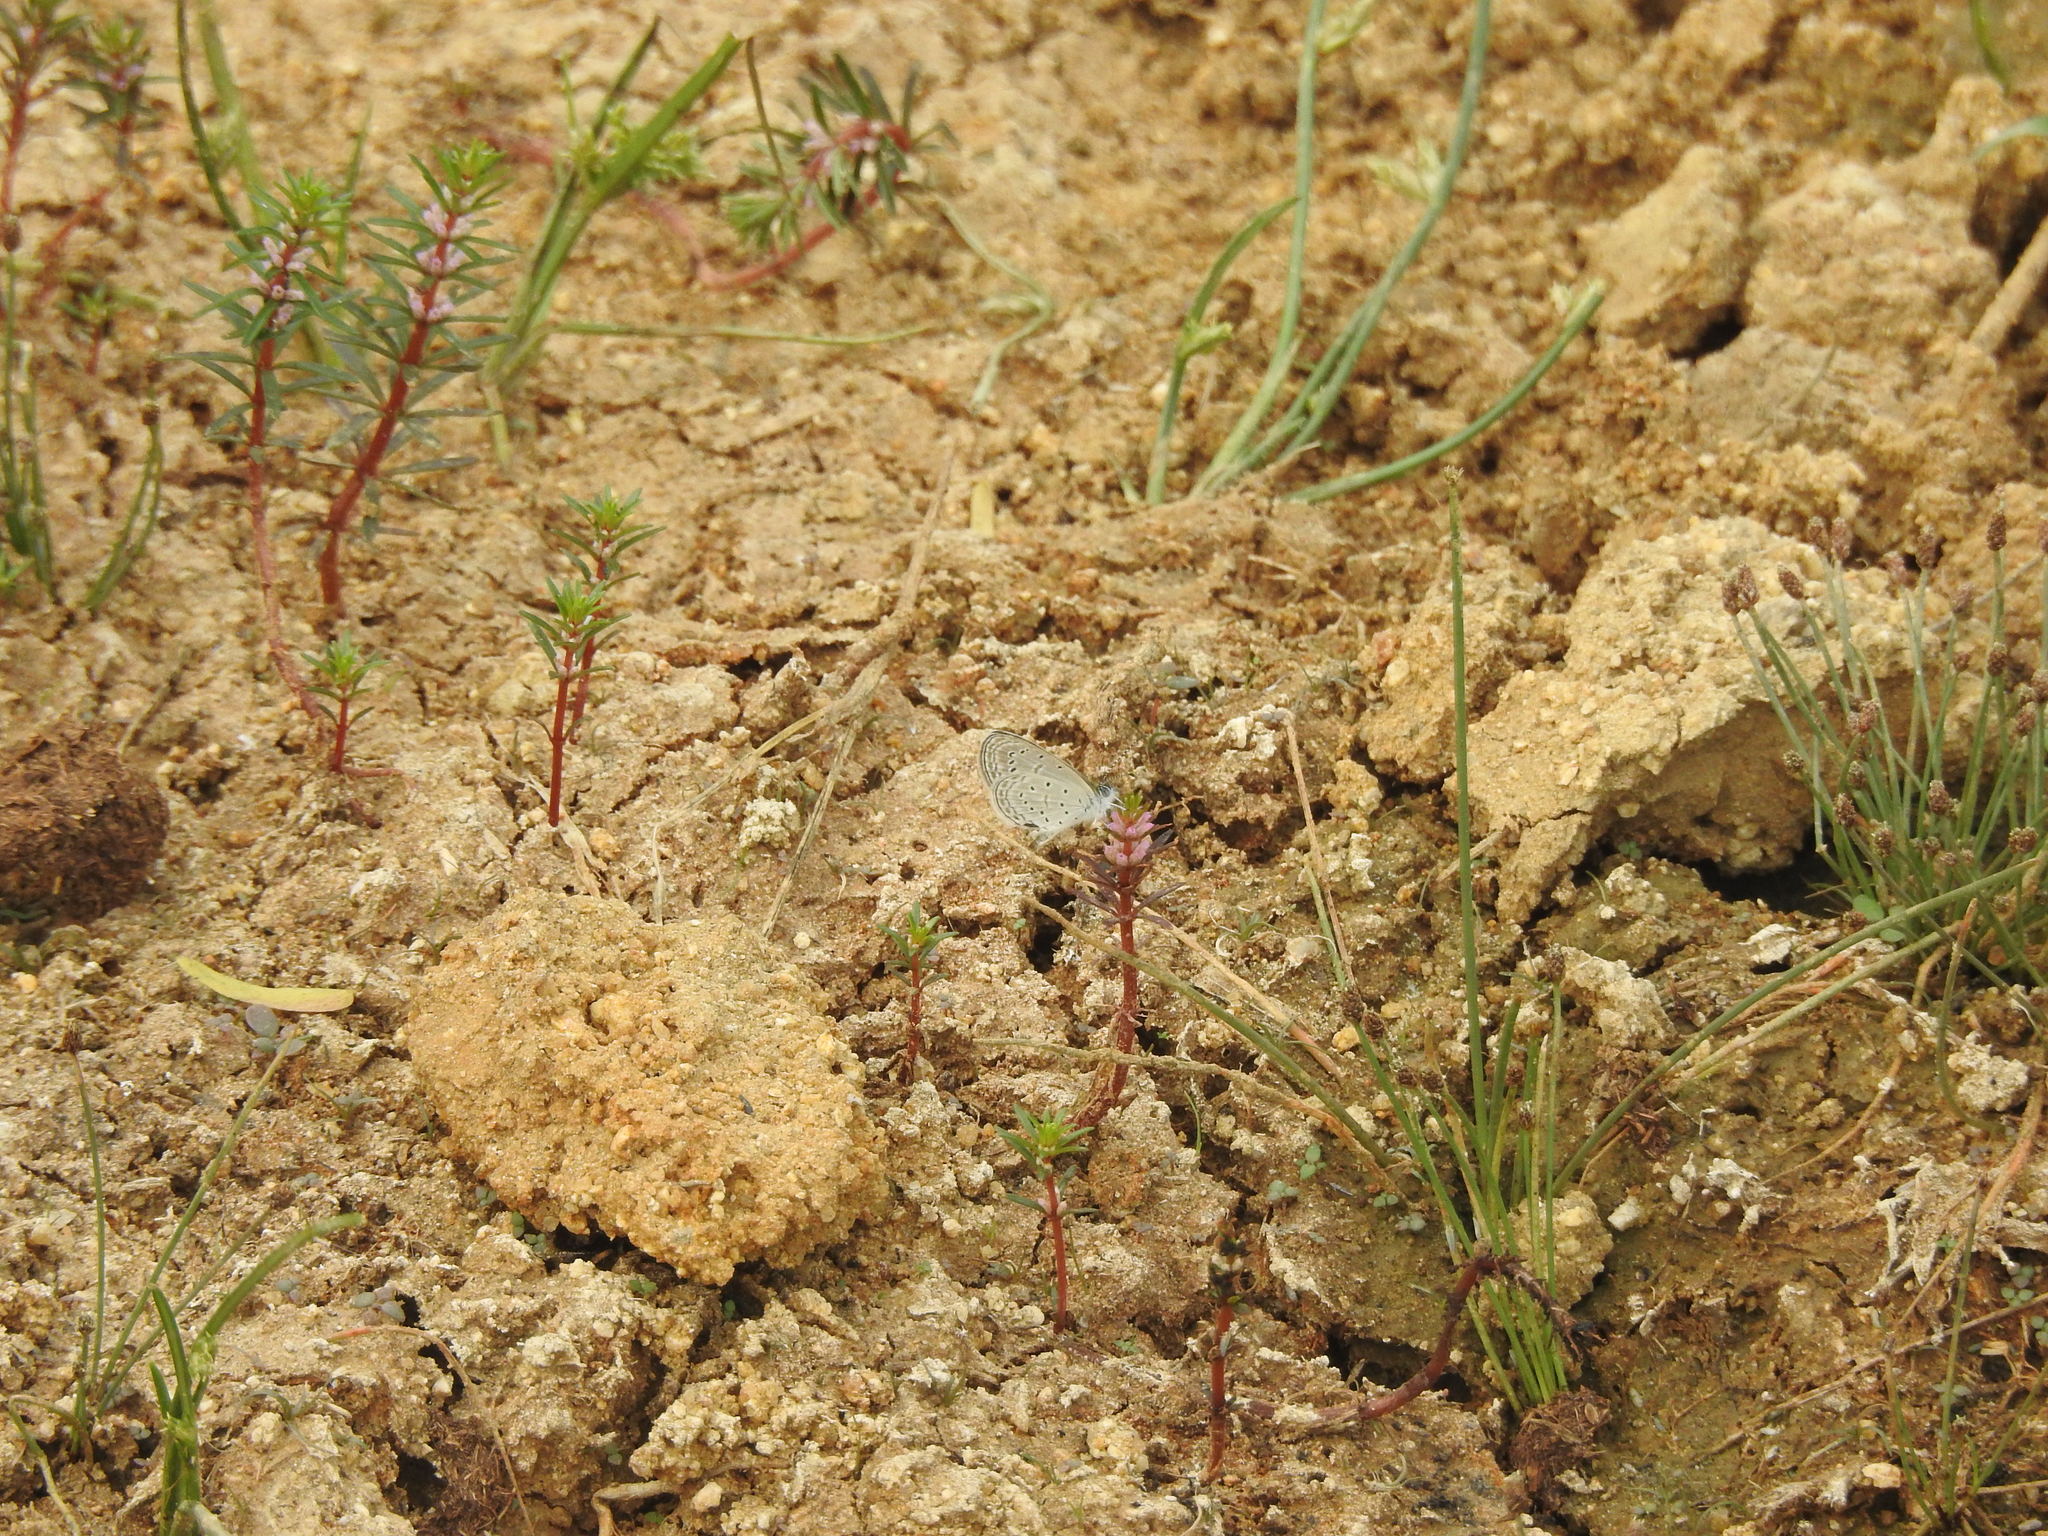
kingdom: Animalia
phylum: Arthropoda
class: Insecta
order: Lepidoptera
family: Lycaenidae
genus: Zizula
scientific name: Zizula hylax
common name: Gaika blue
